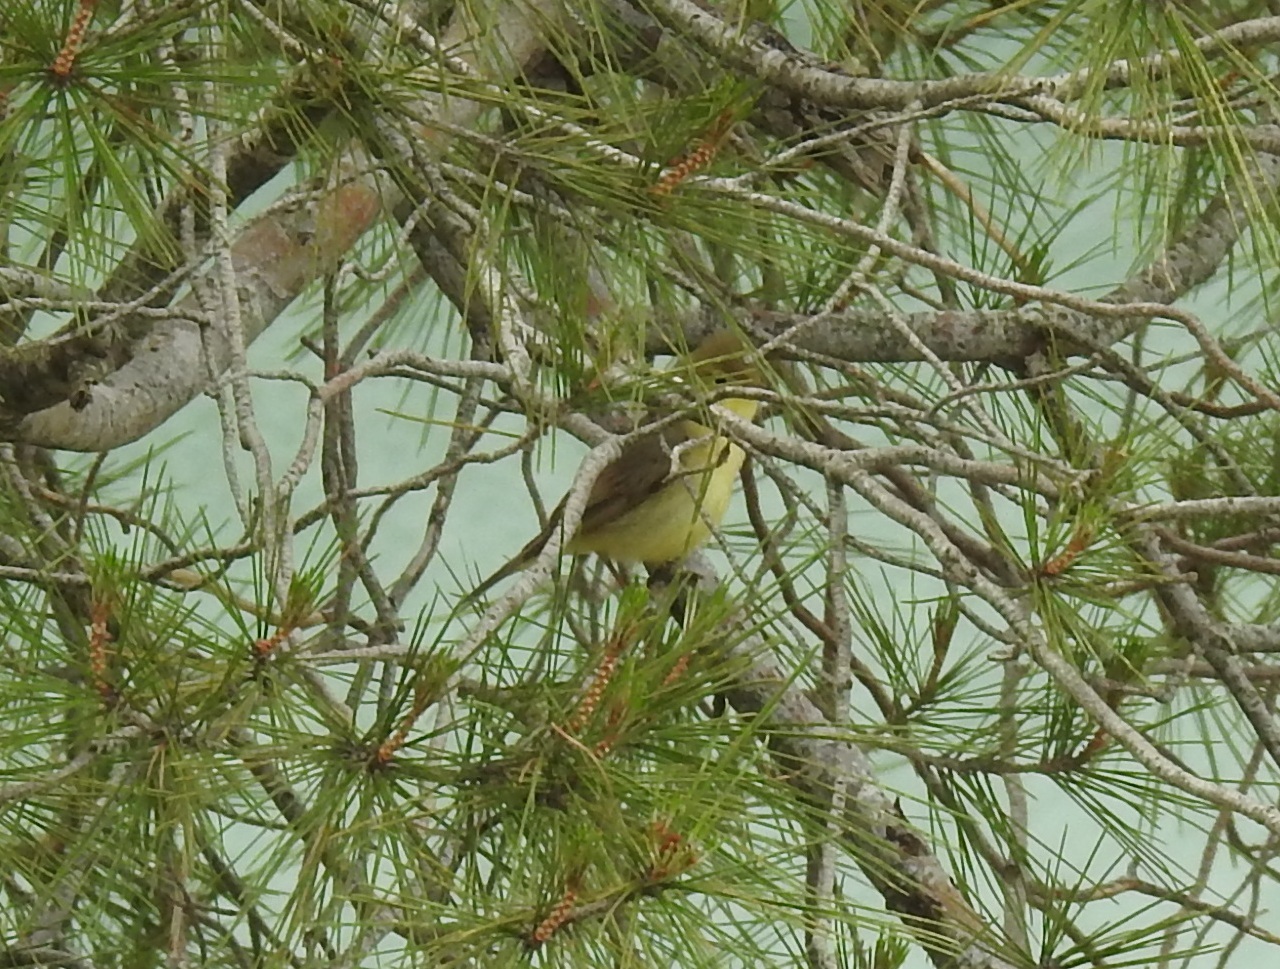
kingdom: Animalia
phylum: Chordata
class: Aves
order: Passeriformes
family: Acrocephalidae
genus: Hippolais
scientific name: Hippolais polyglotta
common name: Melodious warbler
